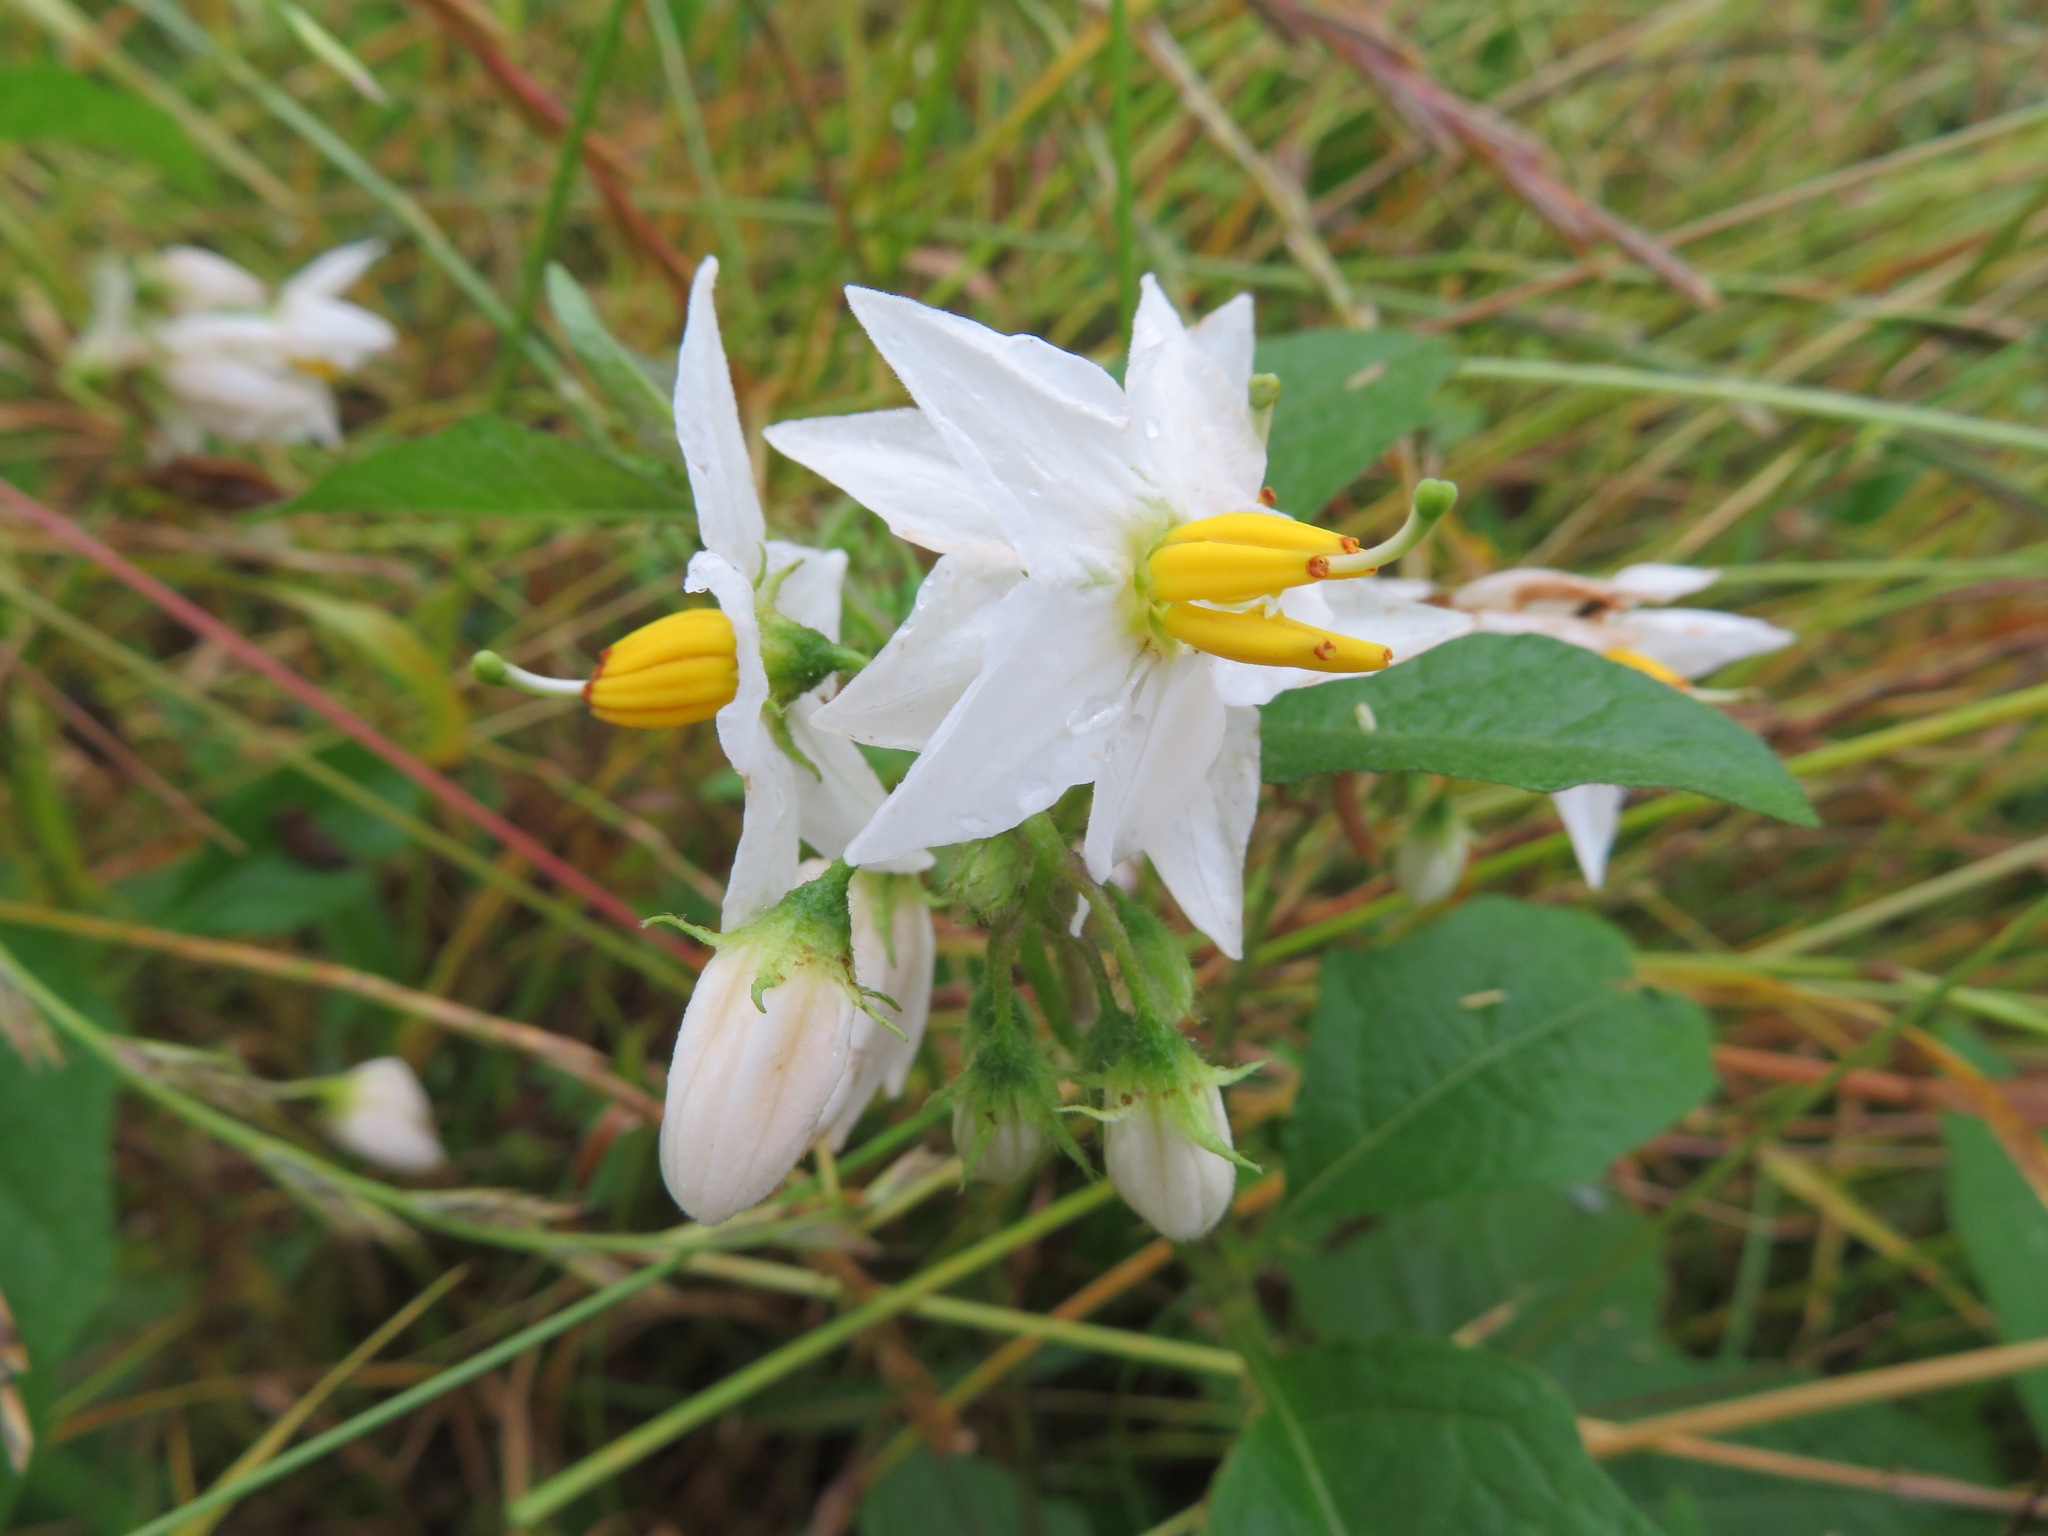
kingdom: Plantae
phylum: Tracheophyta
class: Magnoliopsida
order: Solanales
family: Solanaceae
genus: Solanum
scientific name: Solanum carolinense
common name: Horse-nettle
